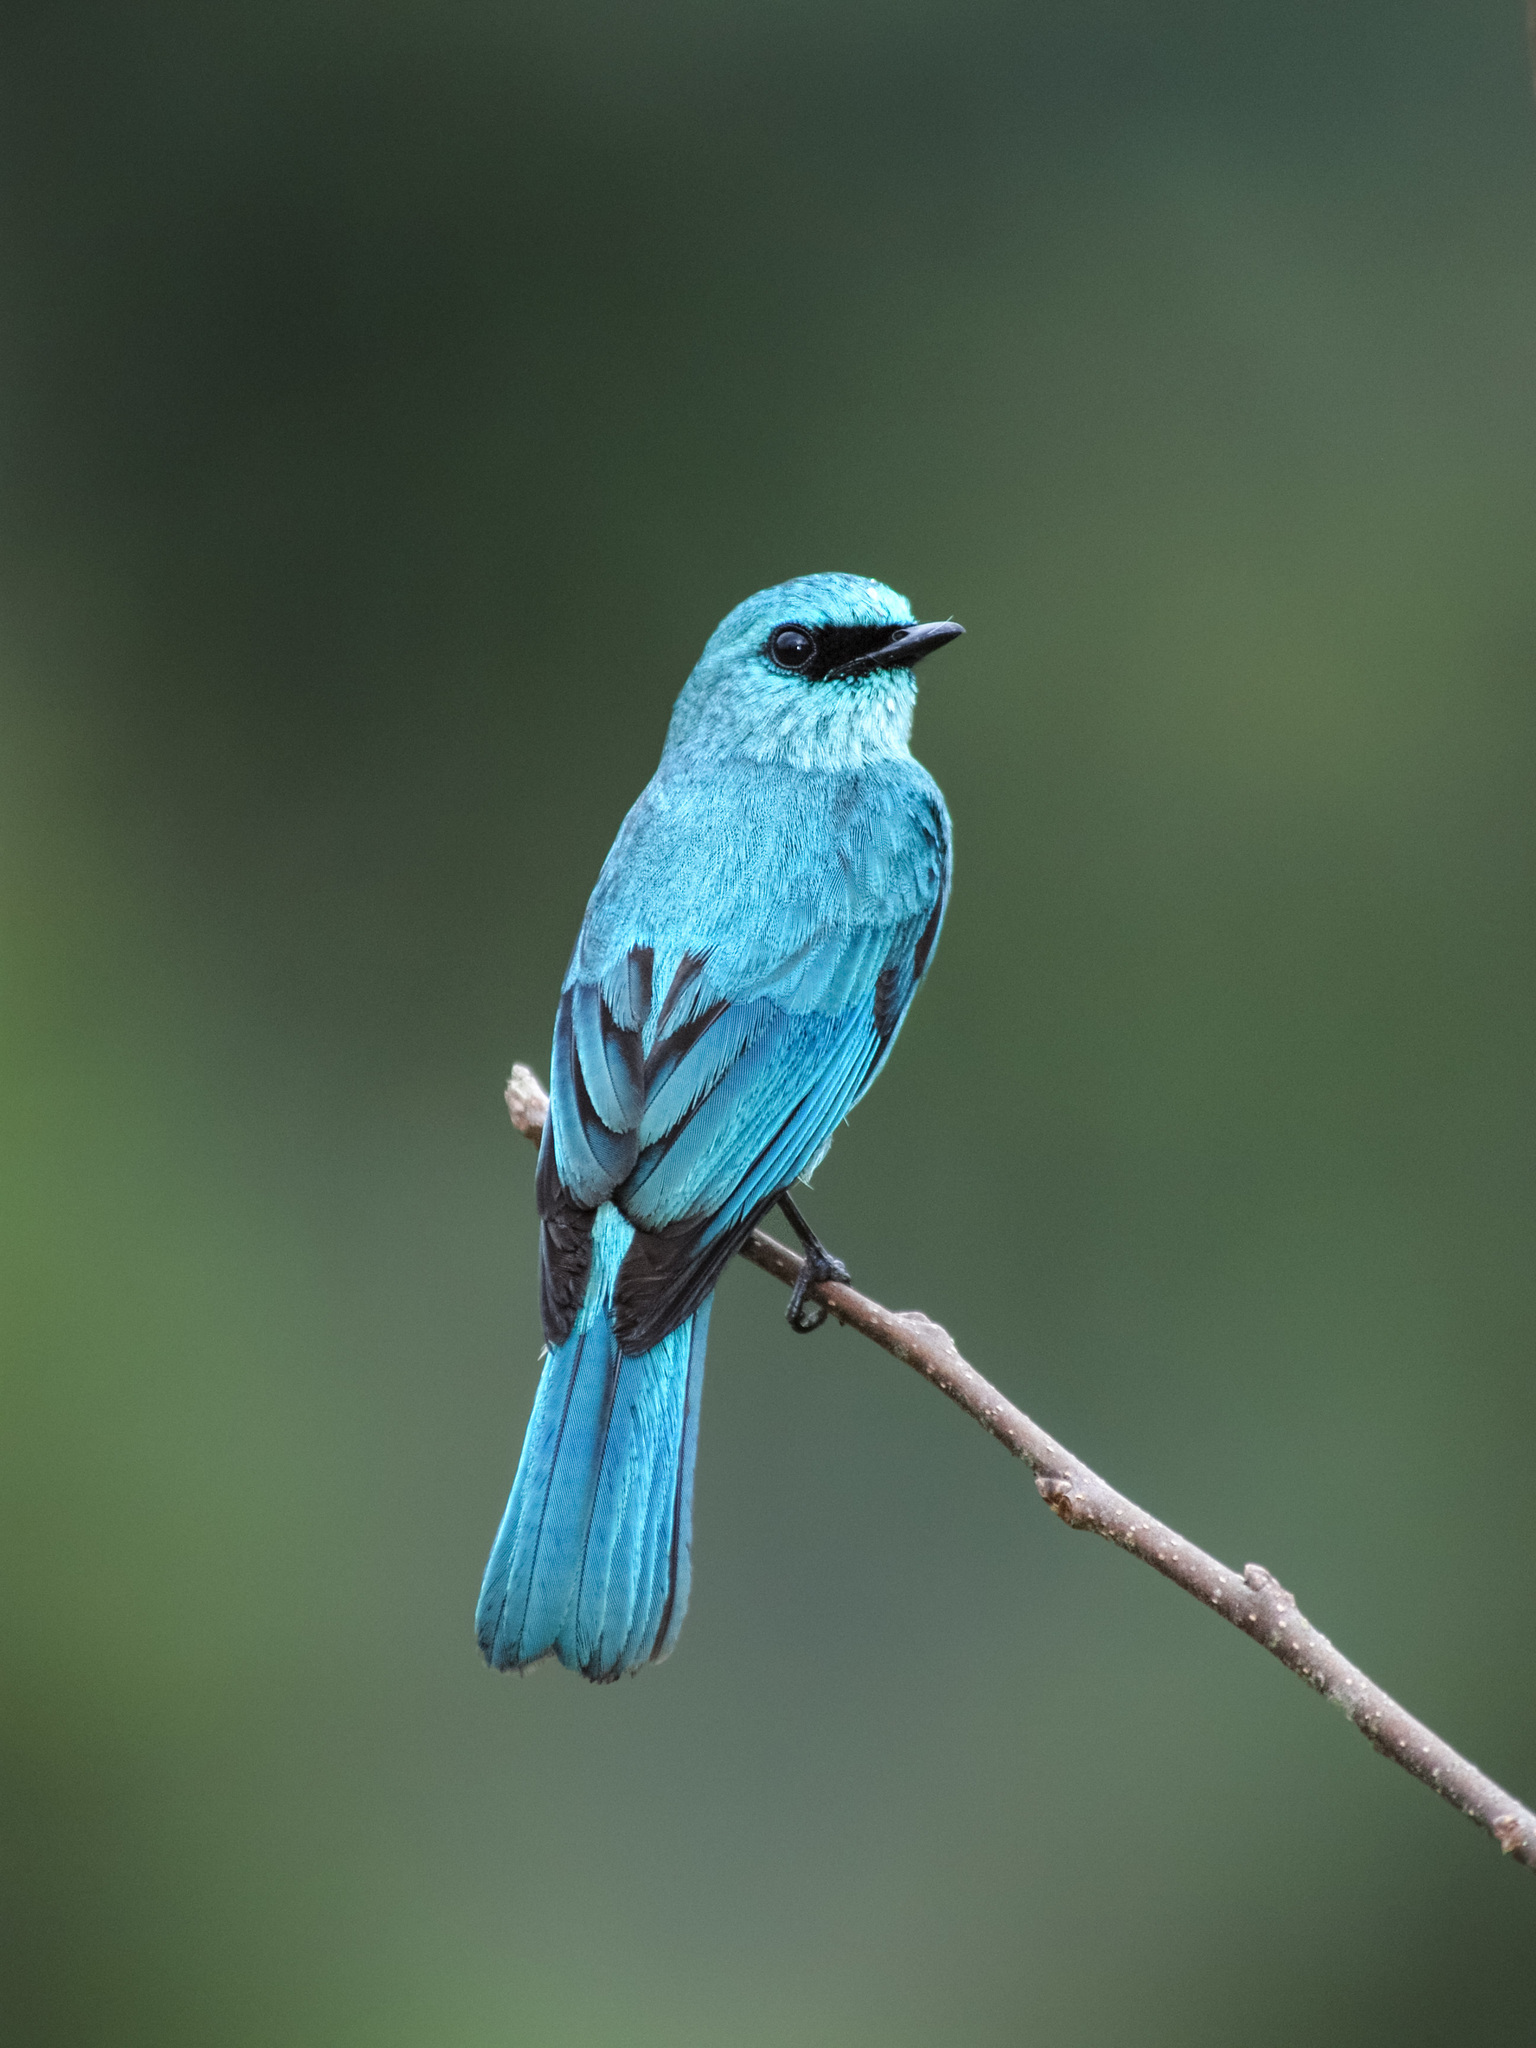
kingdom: Animalia
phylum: Chordata
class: Aves
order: Passeriformes
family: Muscicapidae
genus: Eumyias
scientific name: Eumyias thalassinus
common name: Verditer flycatcher
